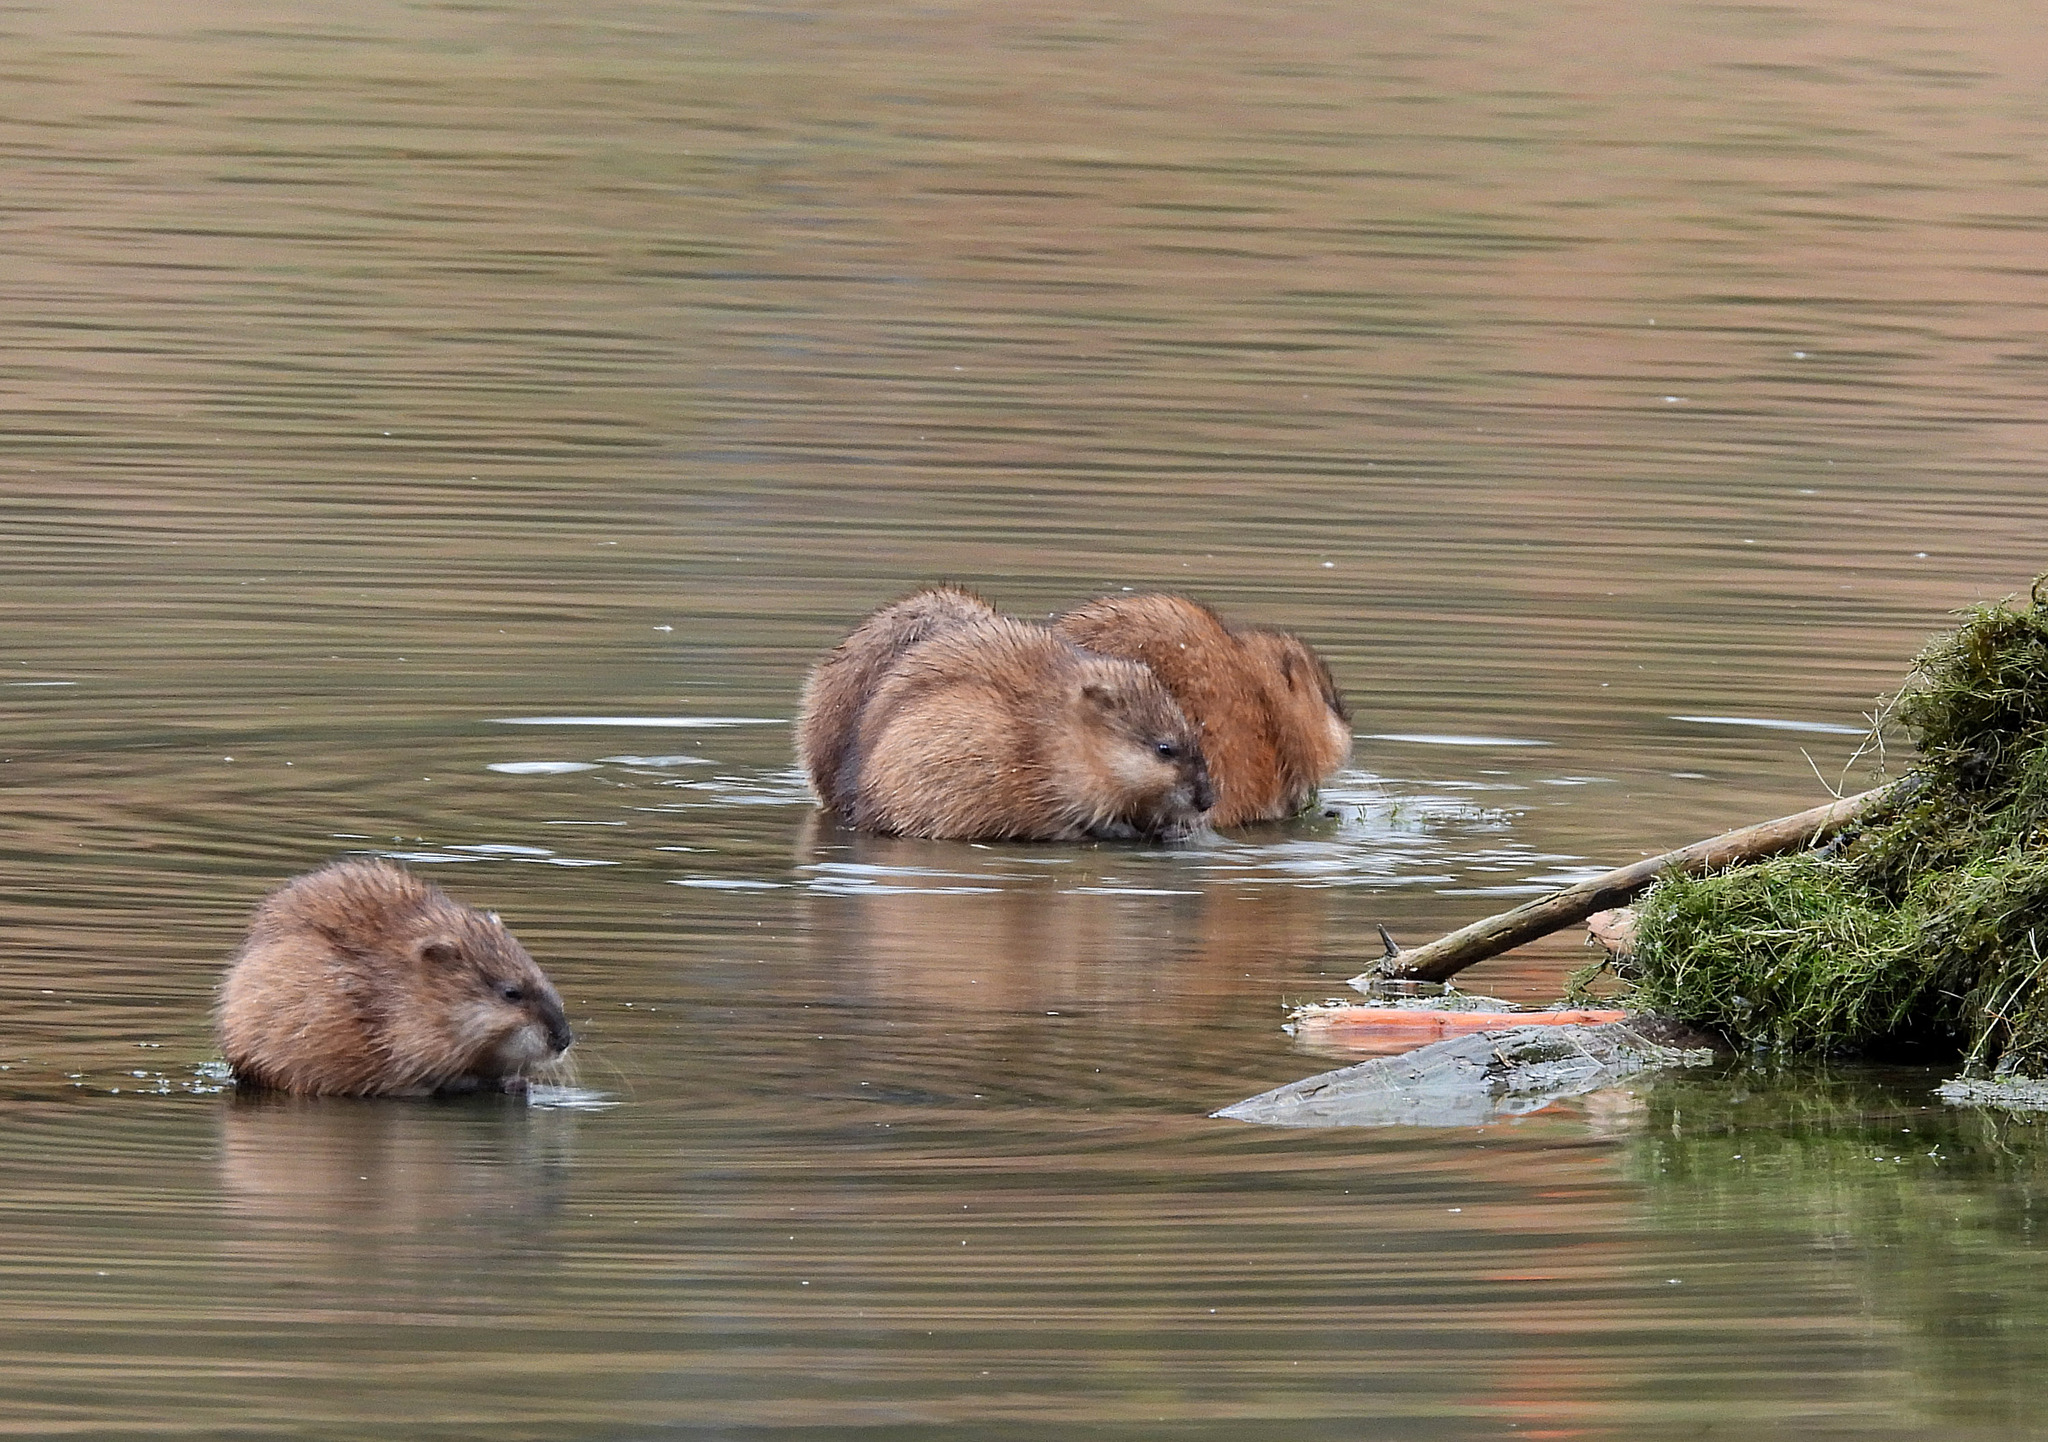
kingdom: Animalia
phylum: Chordata
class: Mammalia
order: Rodentia
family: Cricetidae
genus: Ondatra
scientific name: Ondatra zibethicus
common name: Muskrat
